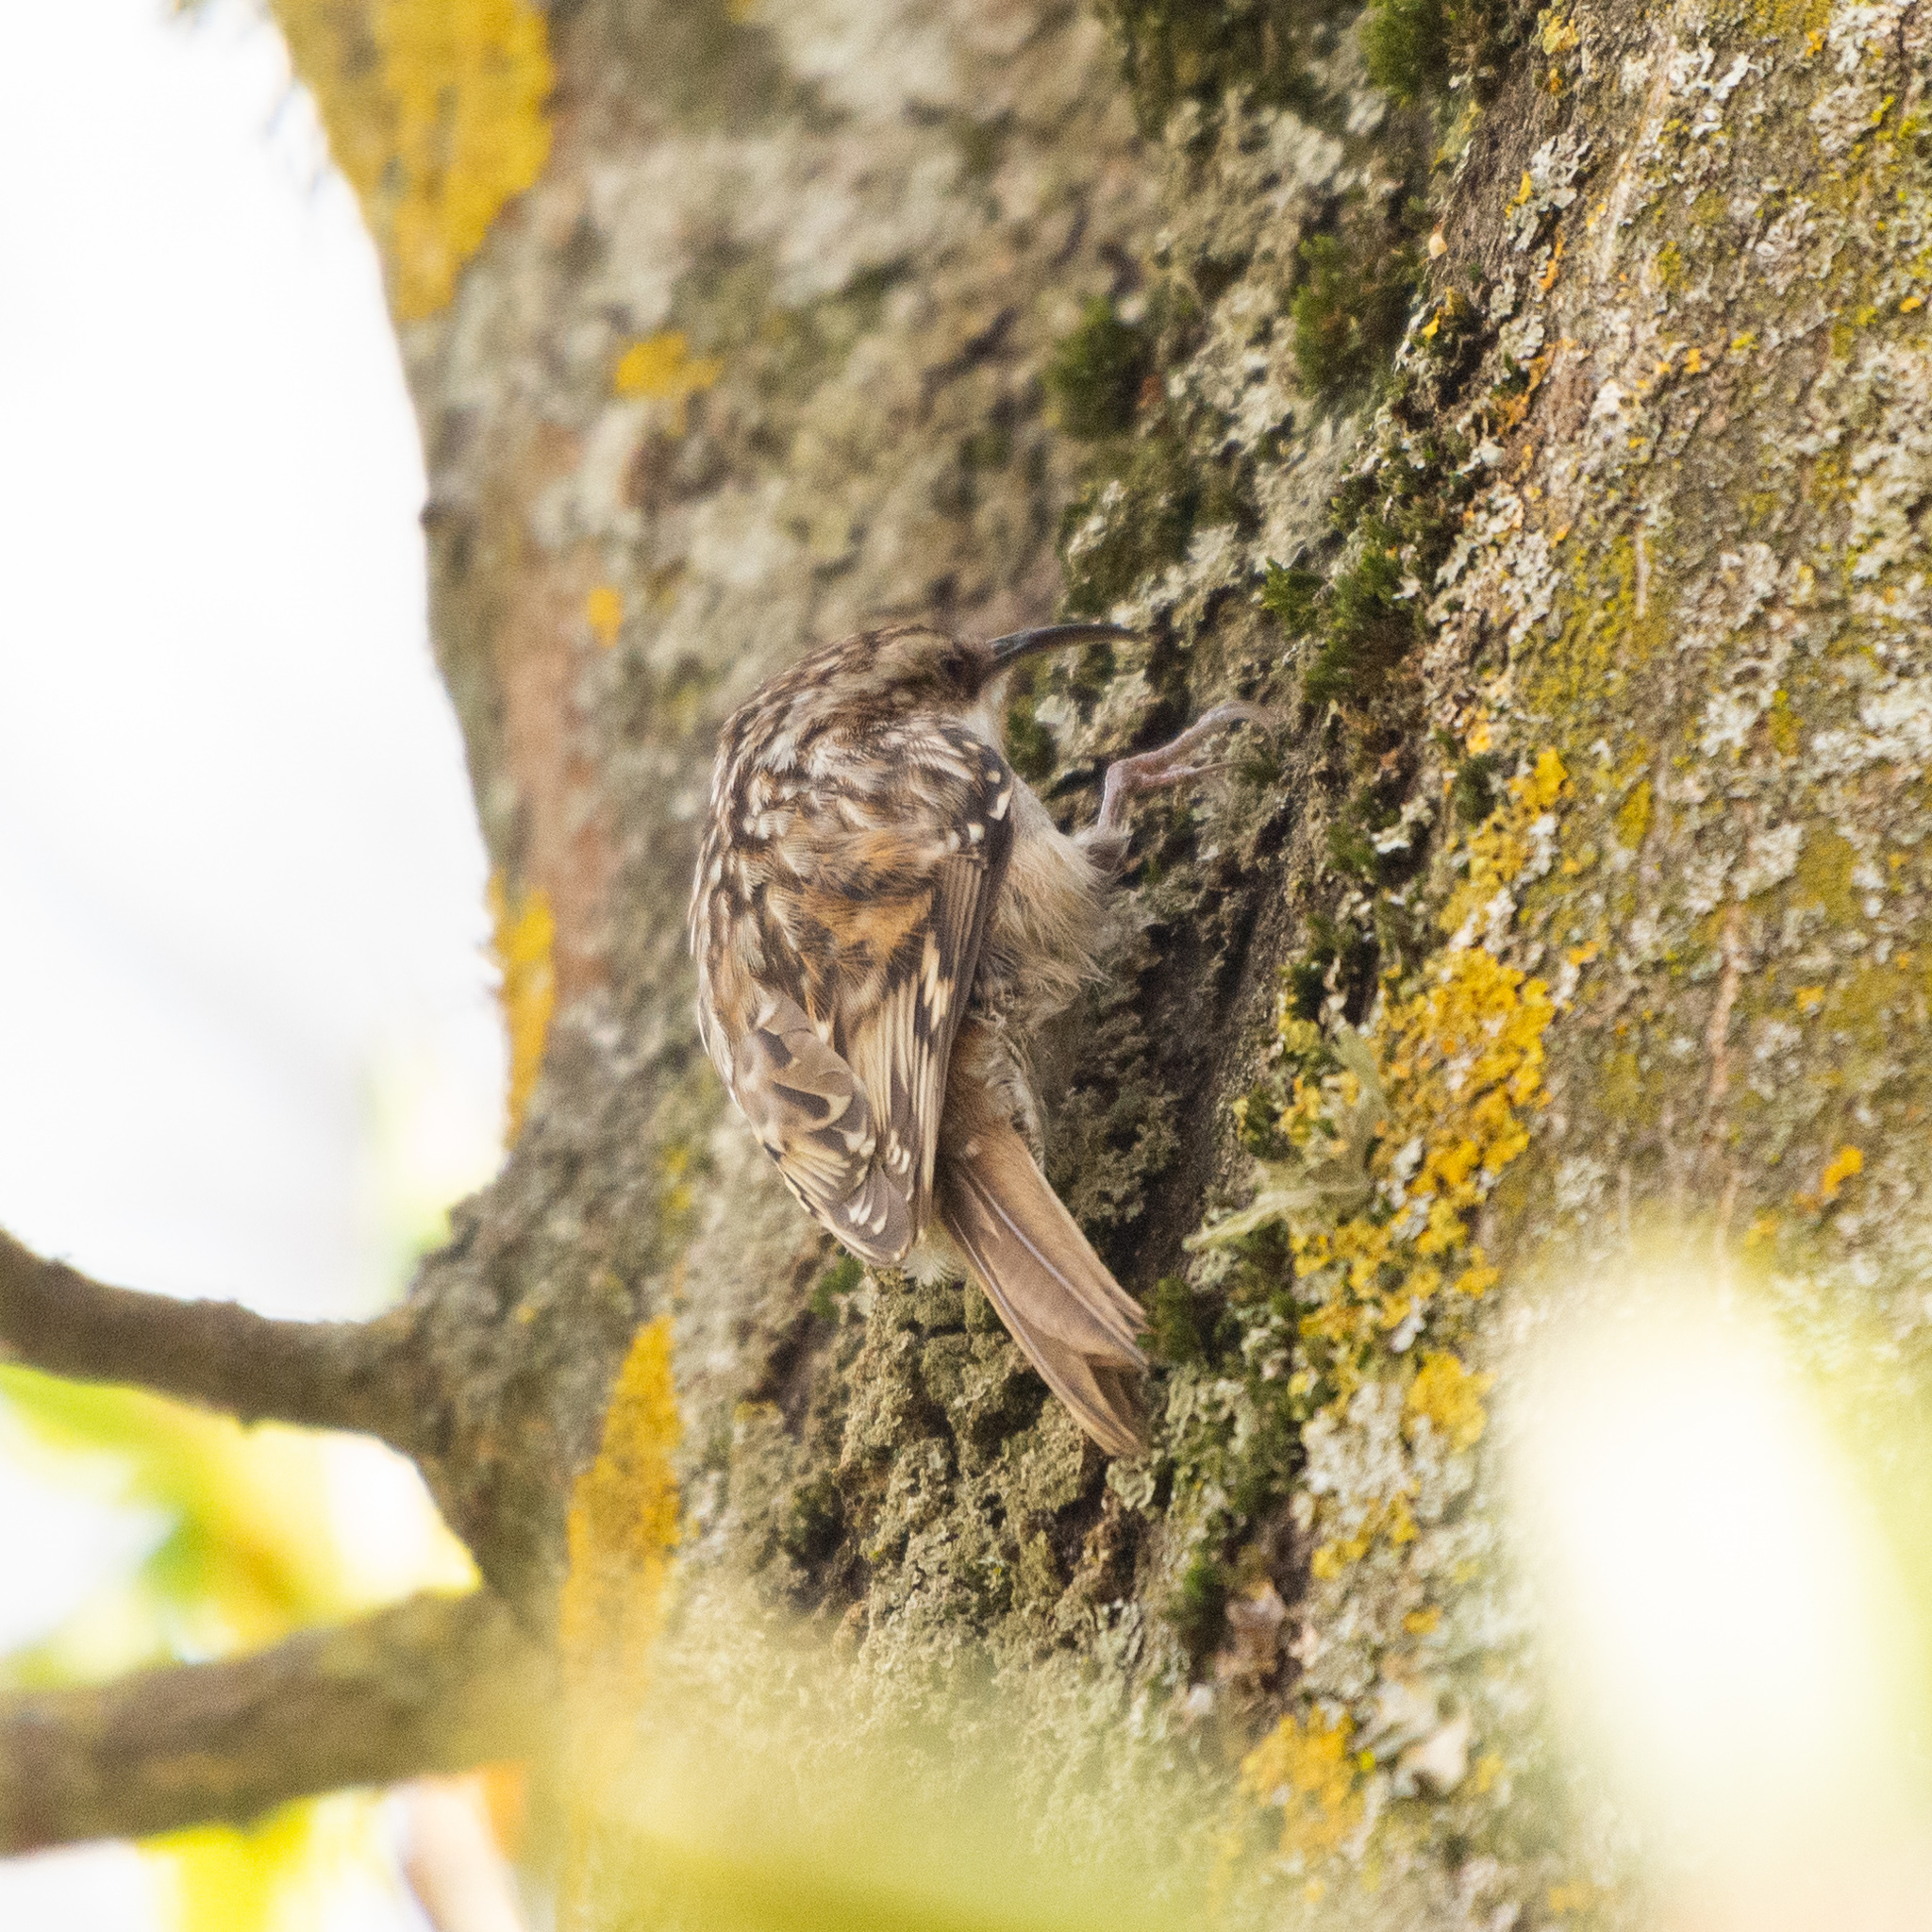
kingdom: Animalia
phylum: Chordata
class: Aves
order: Passeriformes
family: Certhiidae
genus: Certhia
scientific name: Certhia brachydactyla
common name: Short-toed treecreeper
